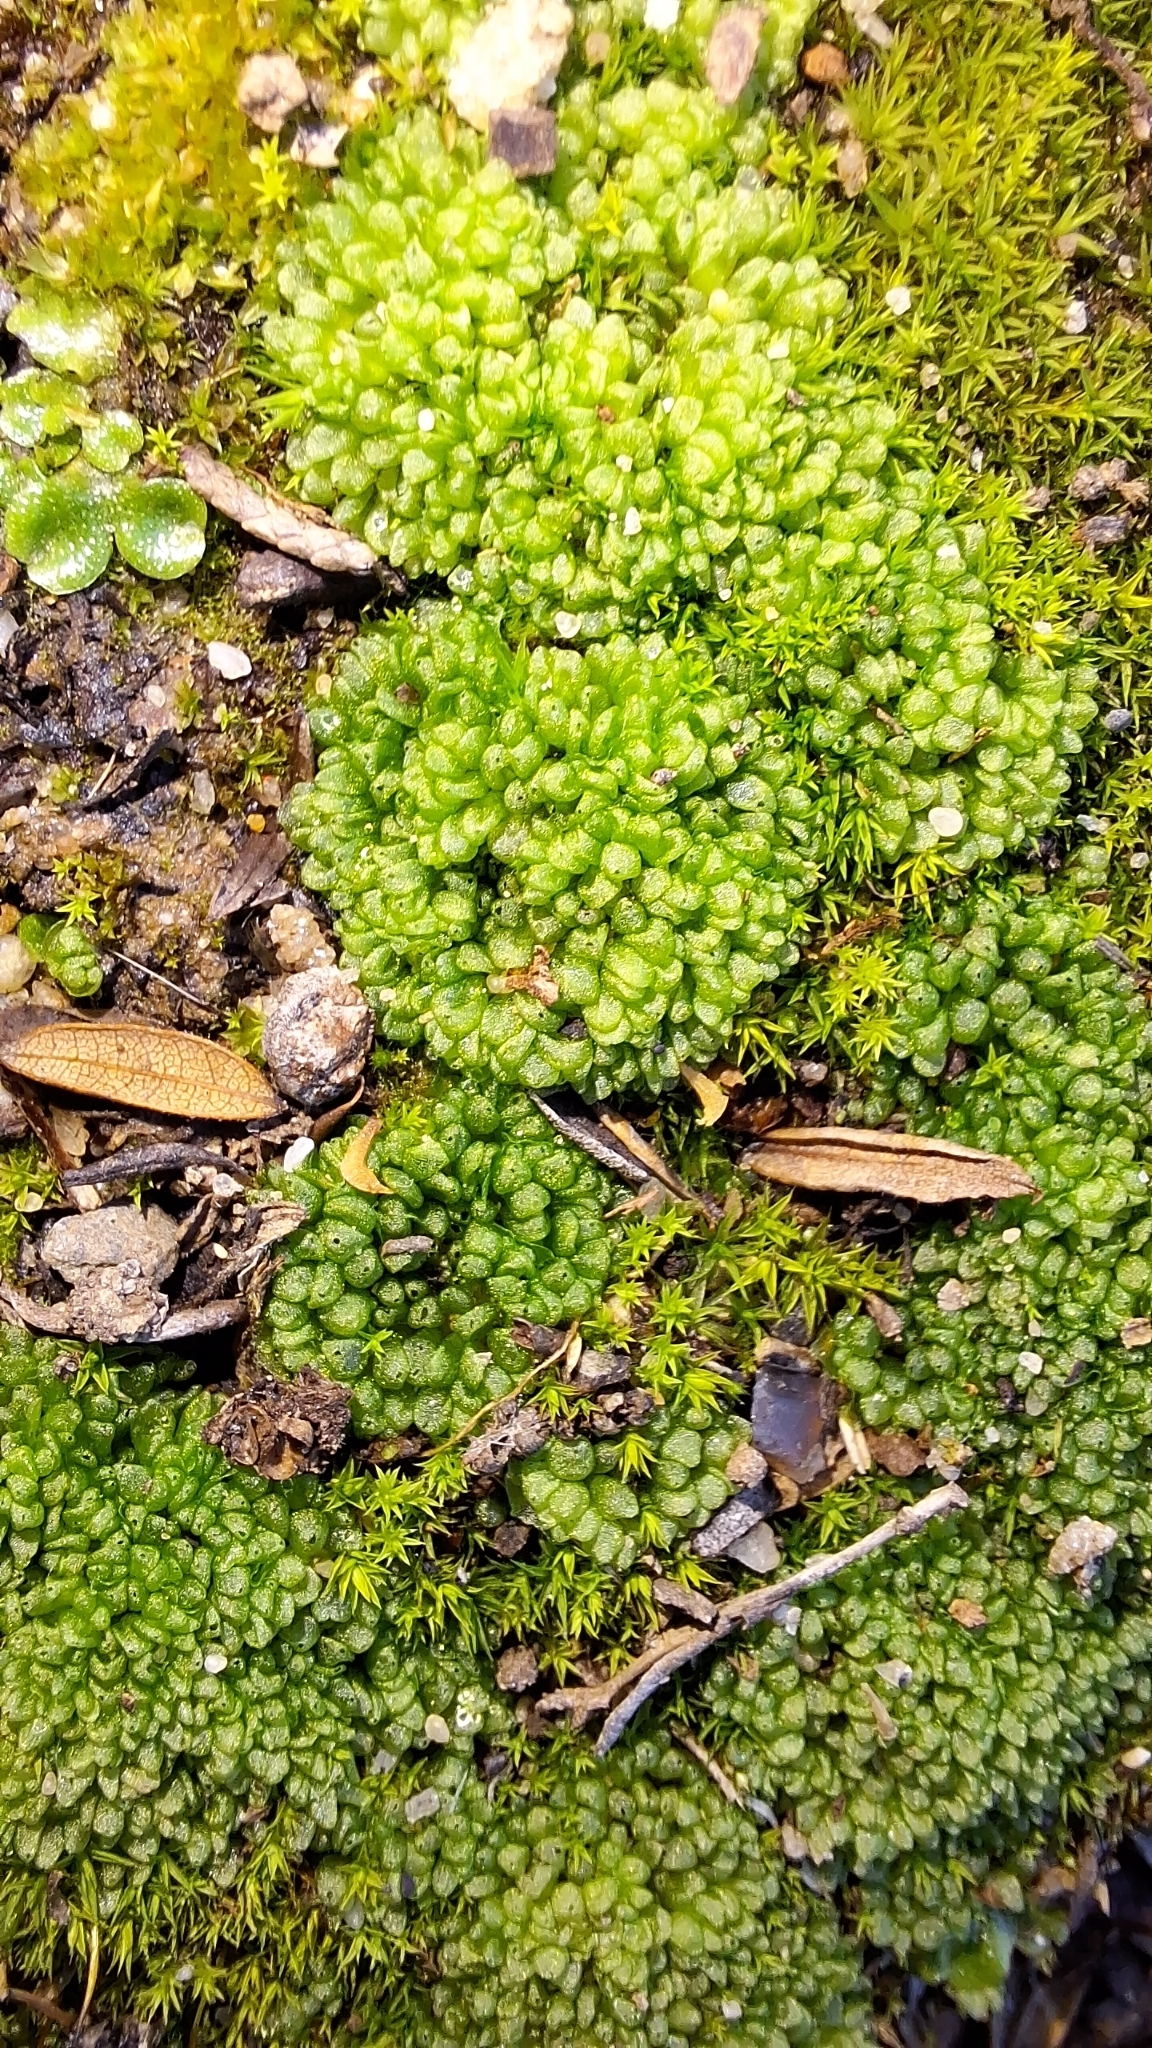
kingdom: Plantae
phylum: Marchantiophyta
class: Marchantiopsida
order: Sphaerocarpales
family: Sphaerocarpaceae
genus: Sphaerocarpos
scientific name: Sphaerocarpos texanus
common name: Texas balloonwort
